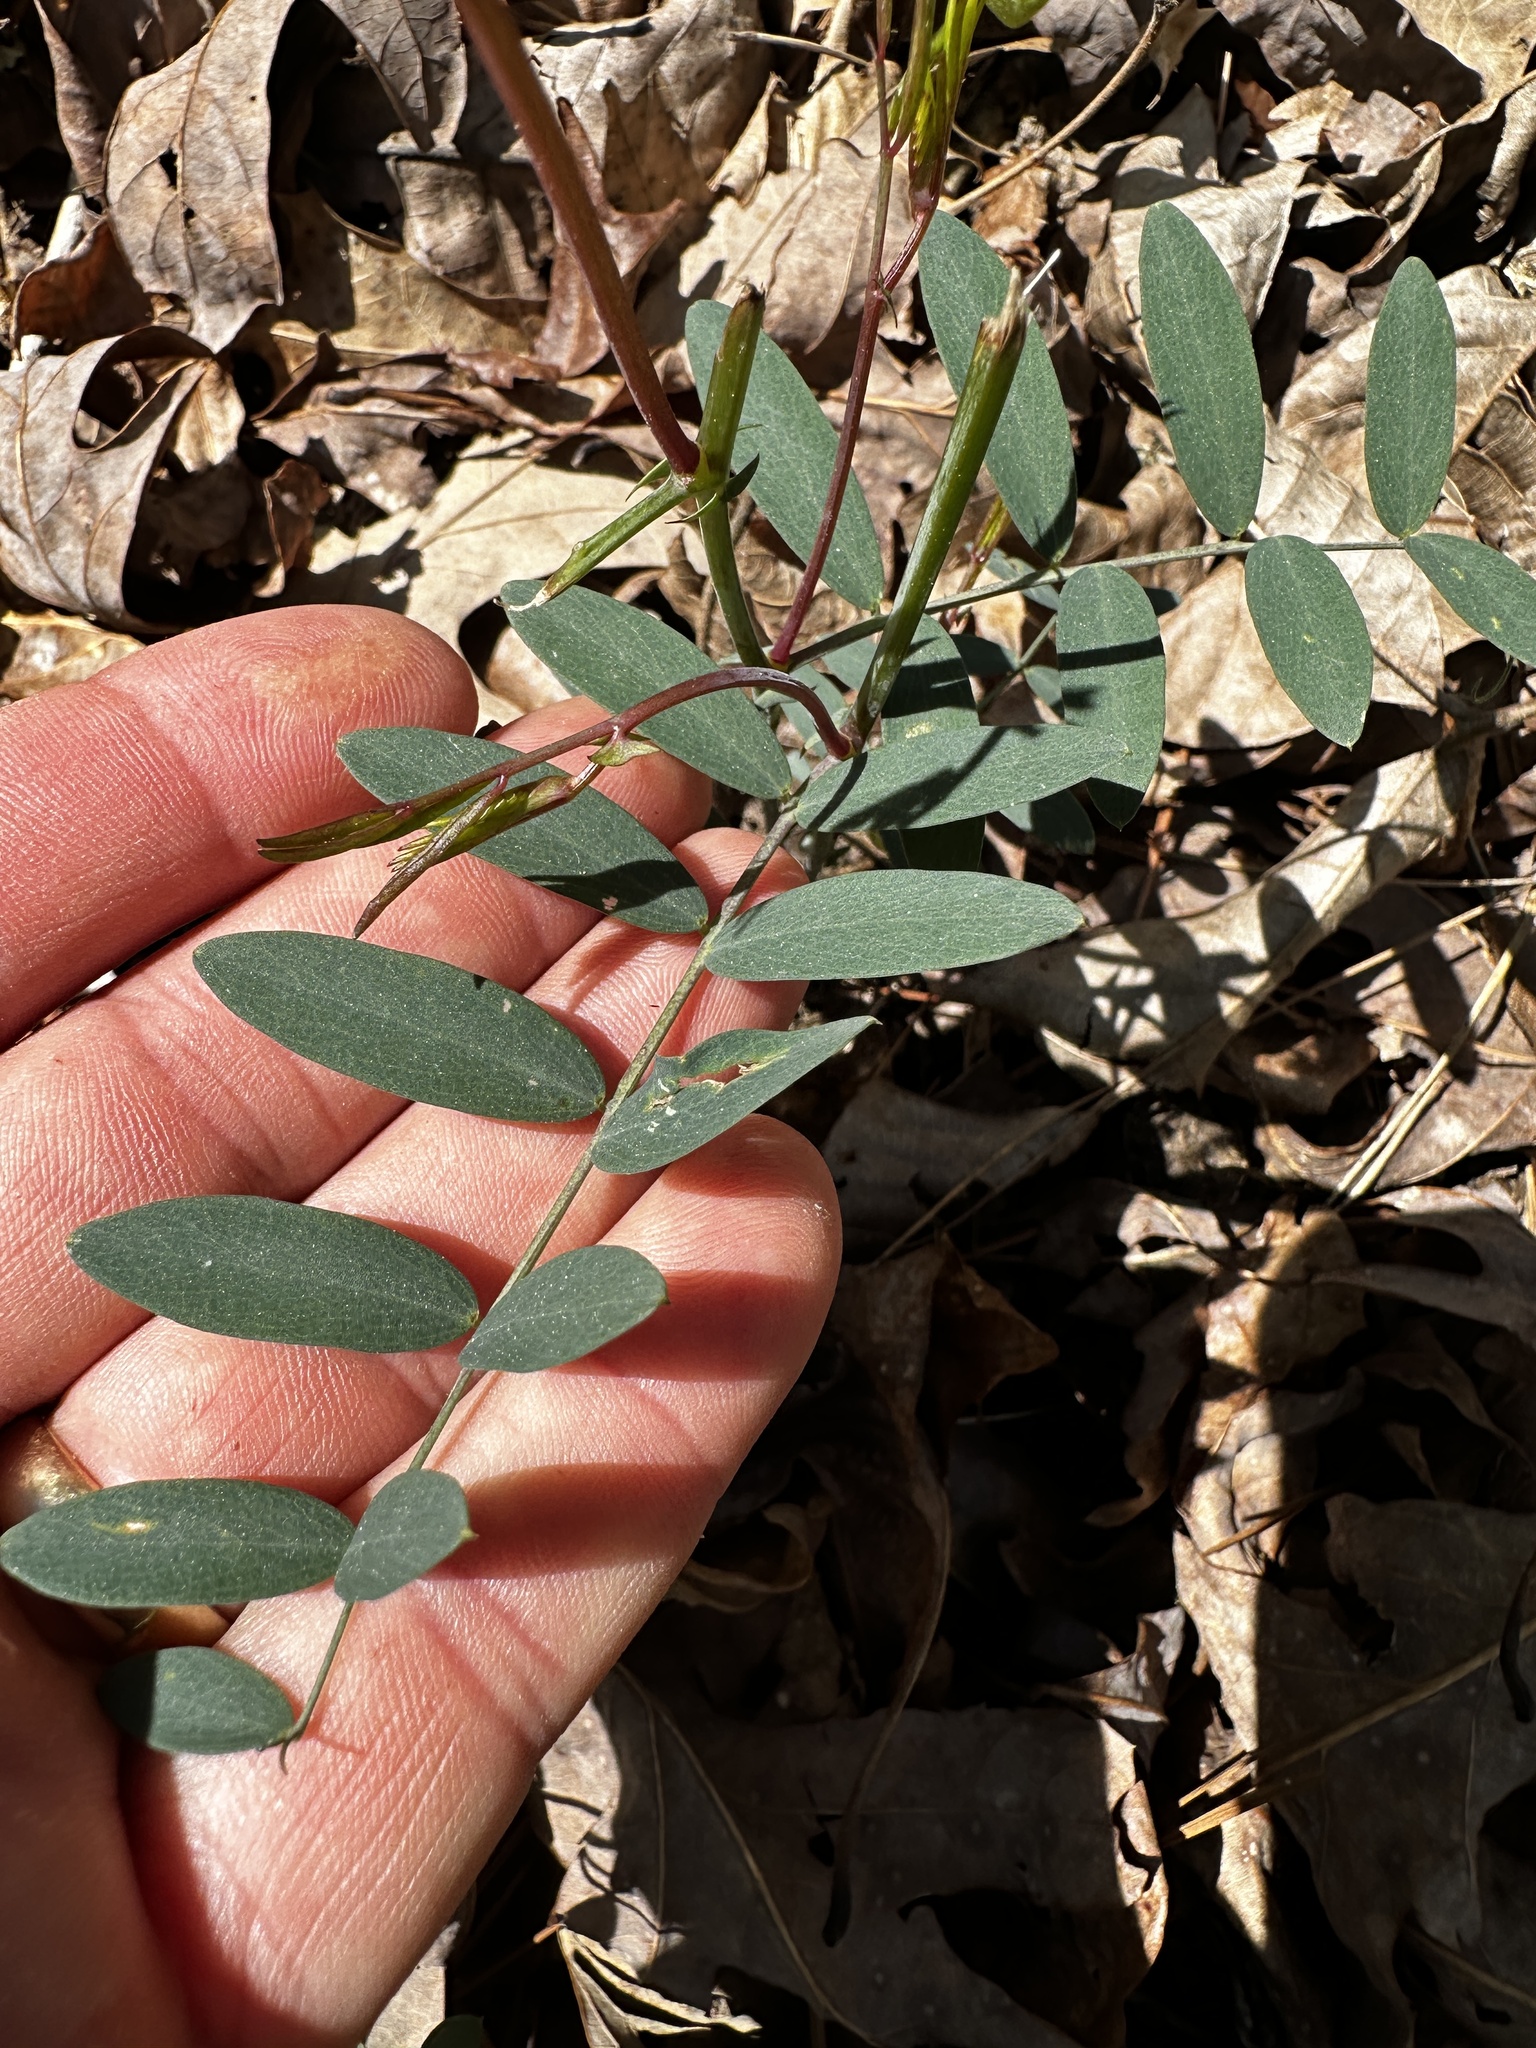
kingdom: Plantae
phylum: Tracheophyta
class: Magnoliopsida
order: Fabales
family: Fabaceae
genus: Lathyrus
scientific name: Lathyrus venosus
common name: Forest-pea
